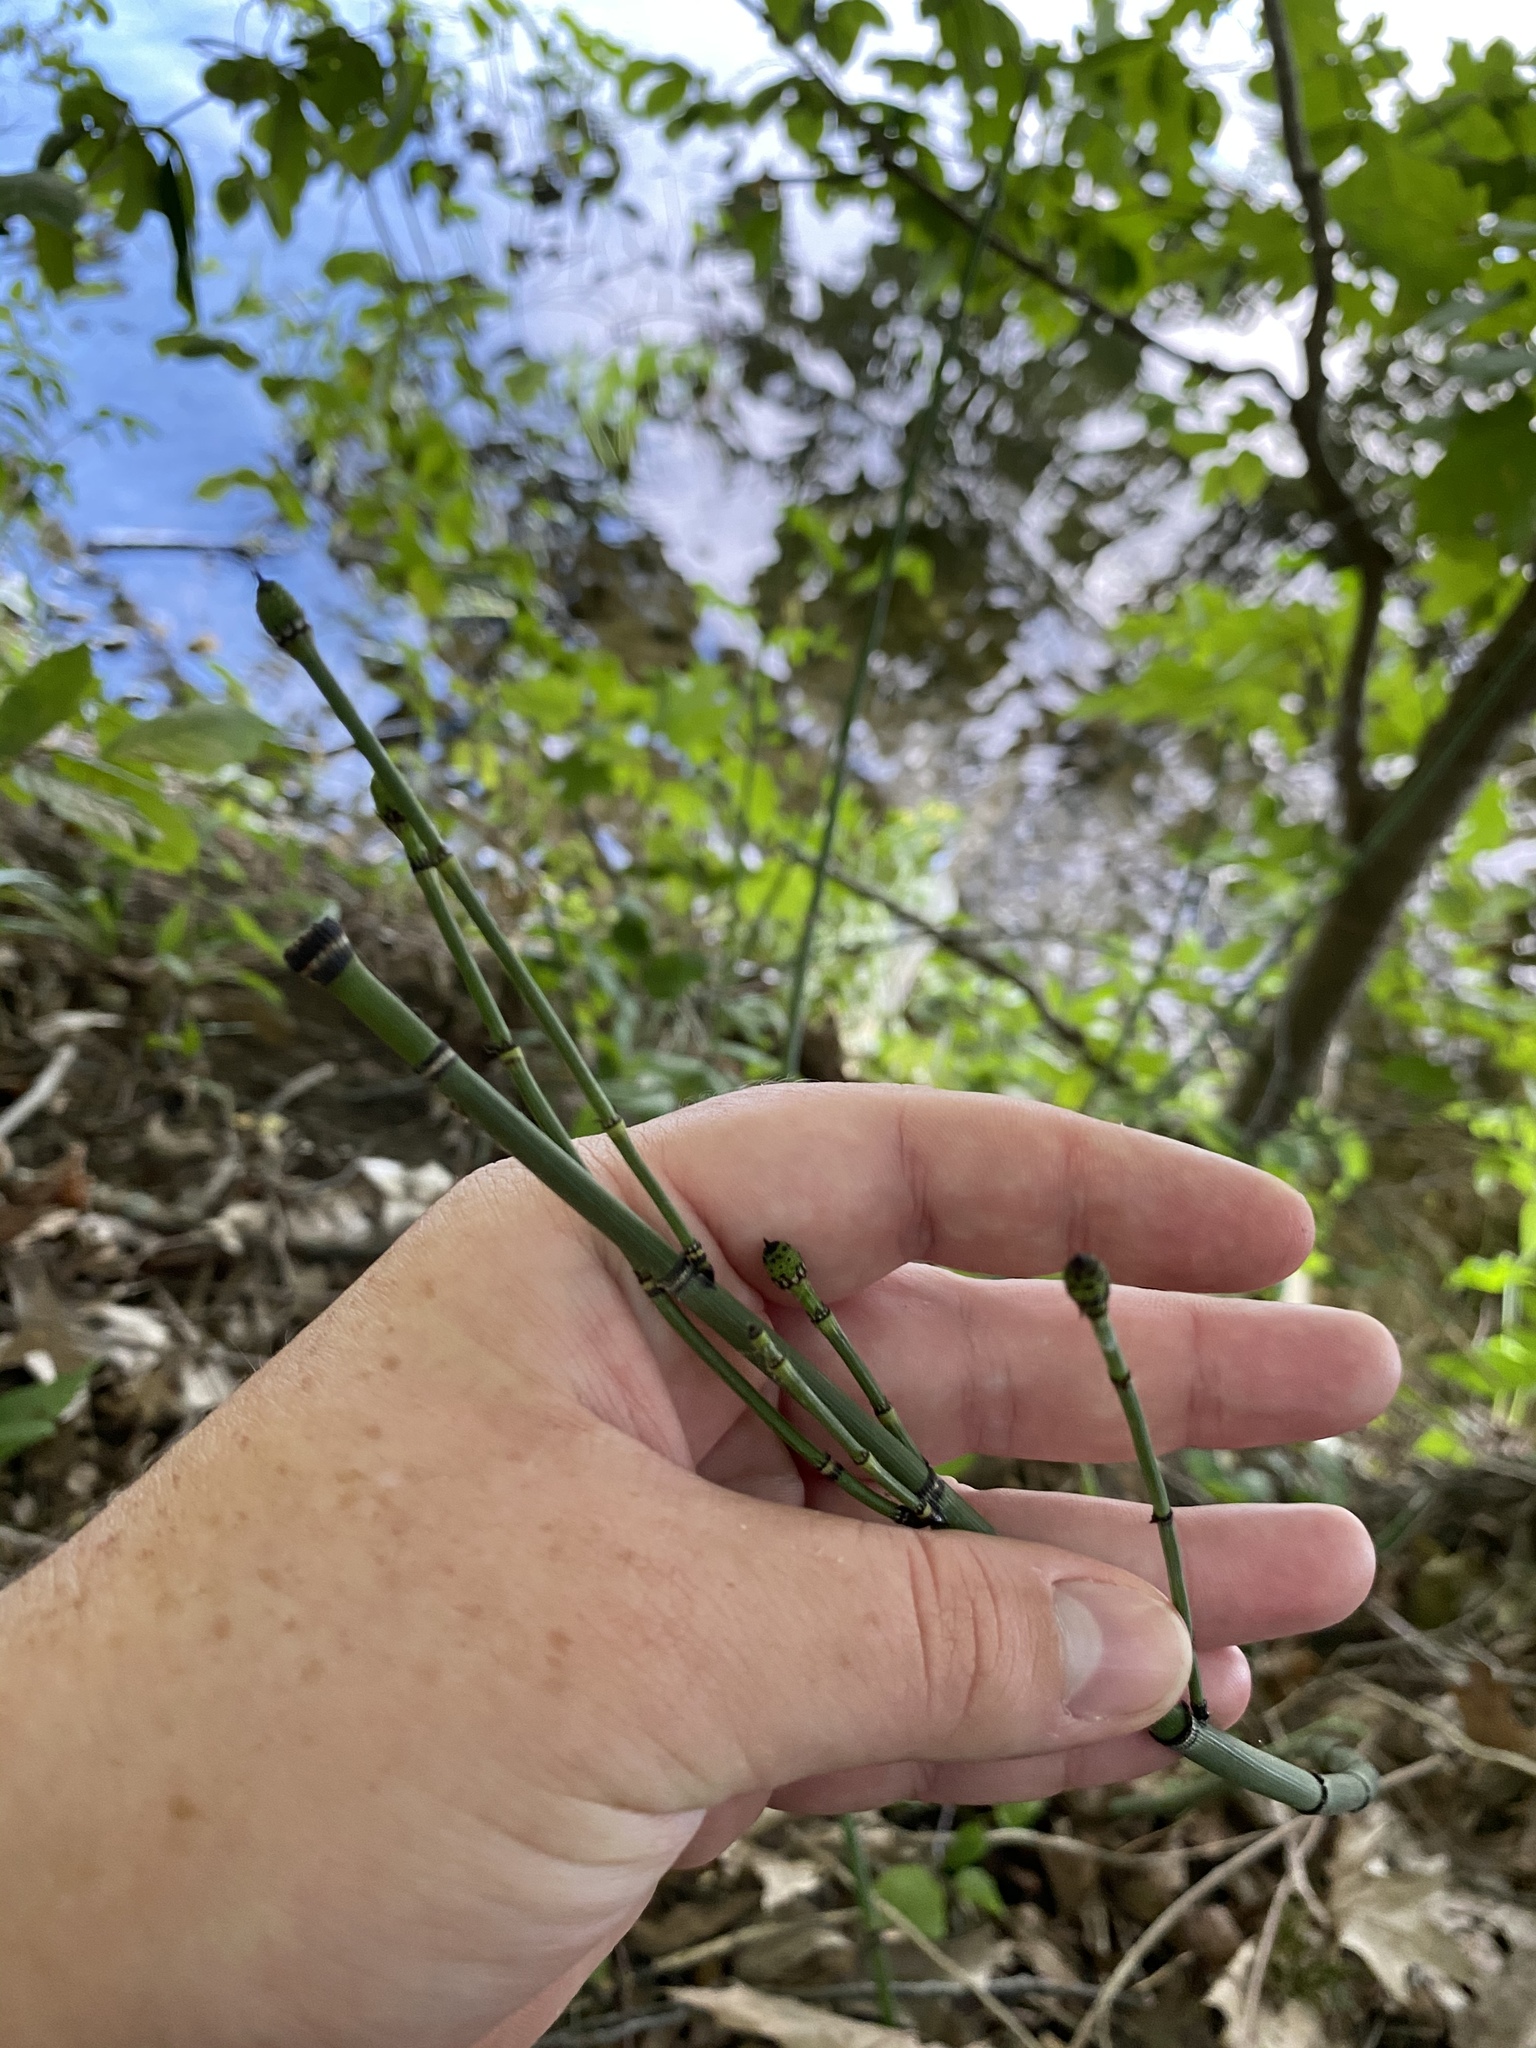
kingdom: Plantae
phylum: Tracheophyta
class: Polypodiopsida
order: Equisetales
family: Equisetaceae
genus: Equisetum
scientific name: Equisetum praealtum
